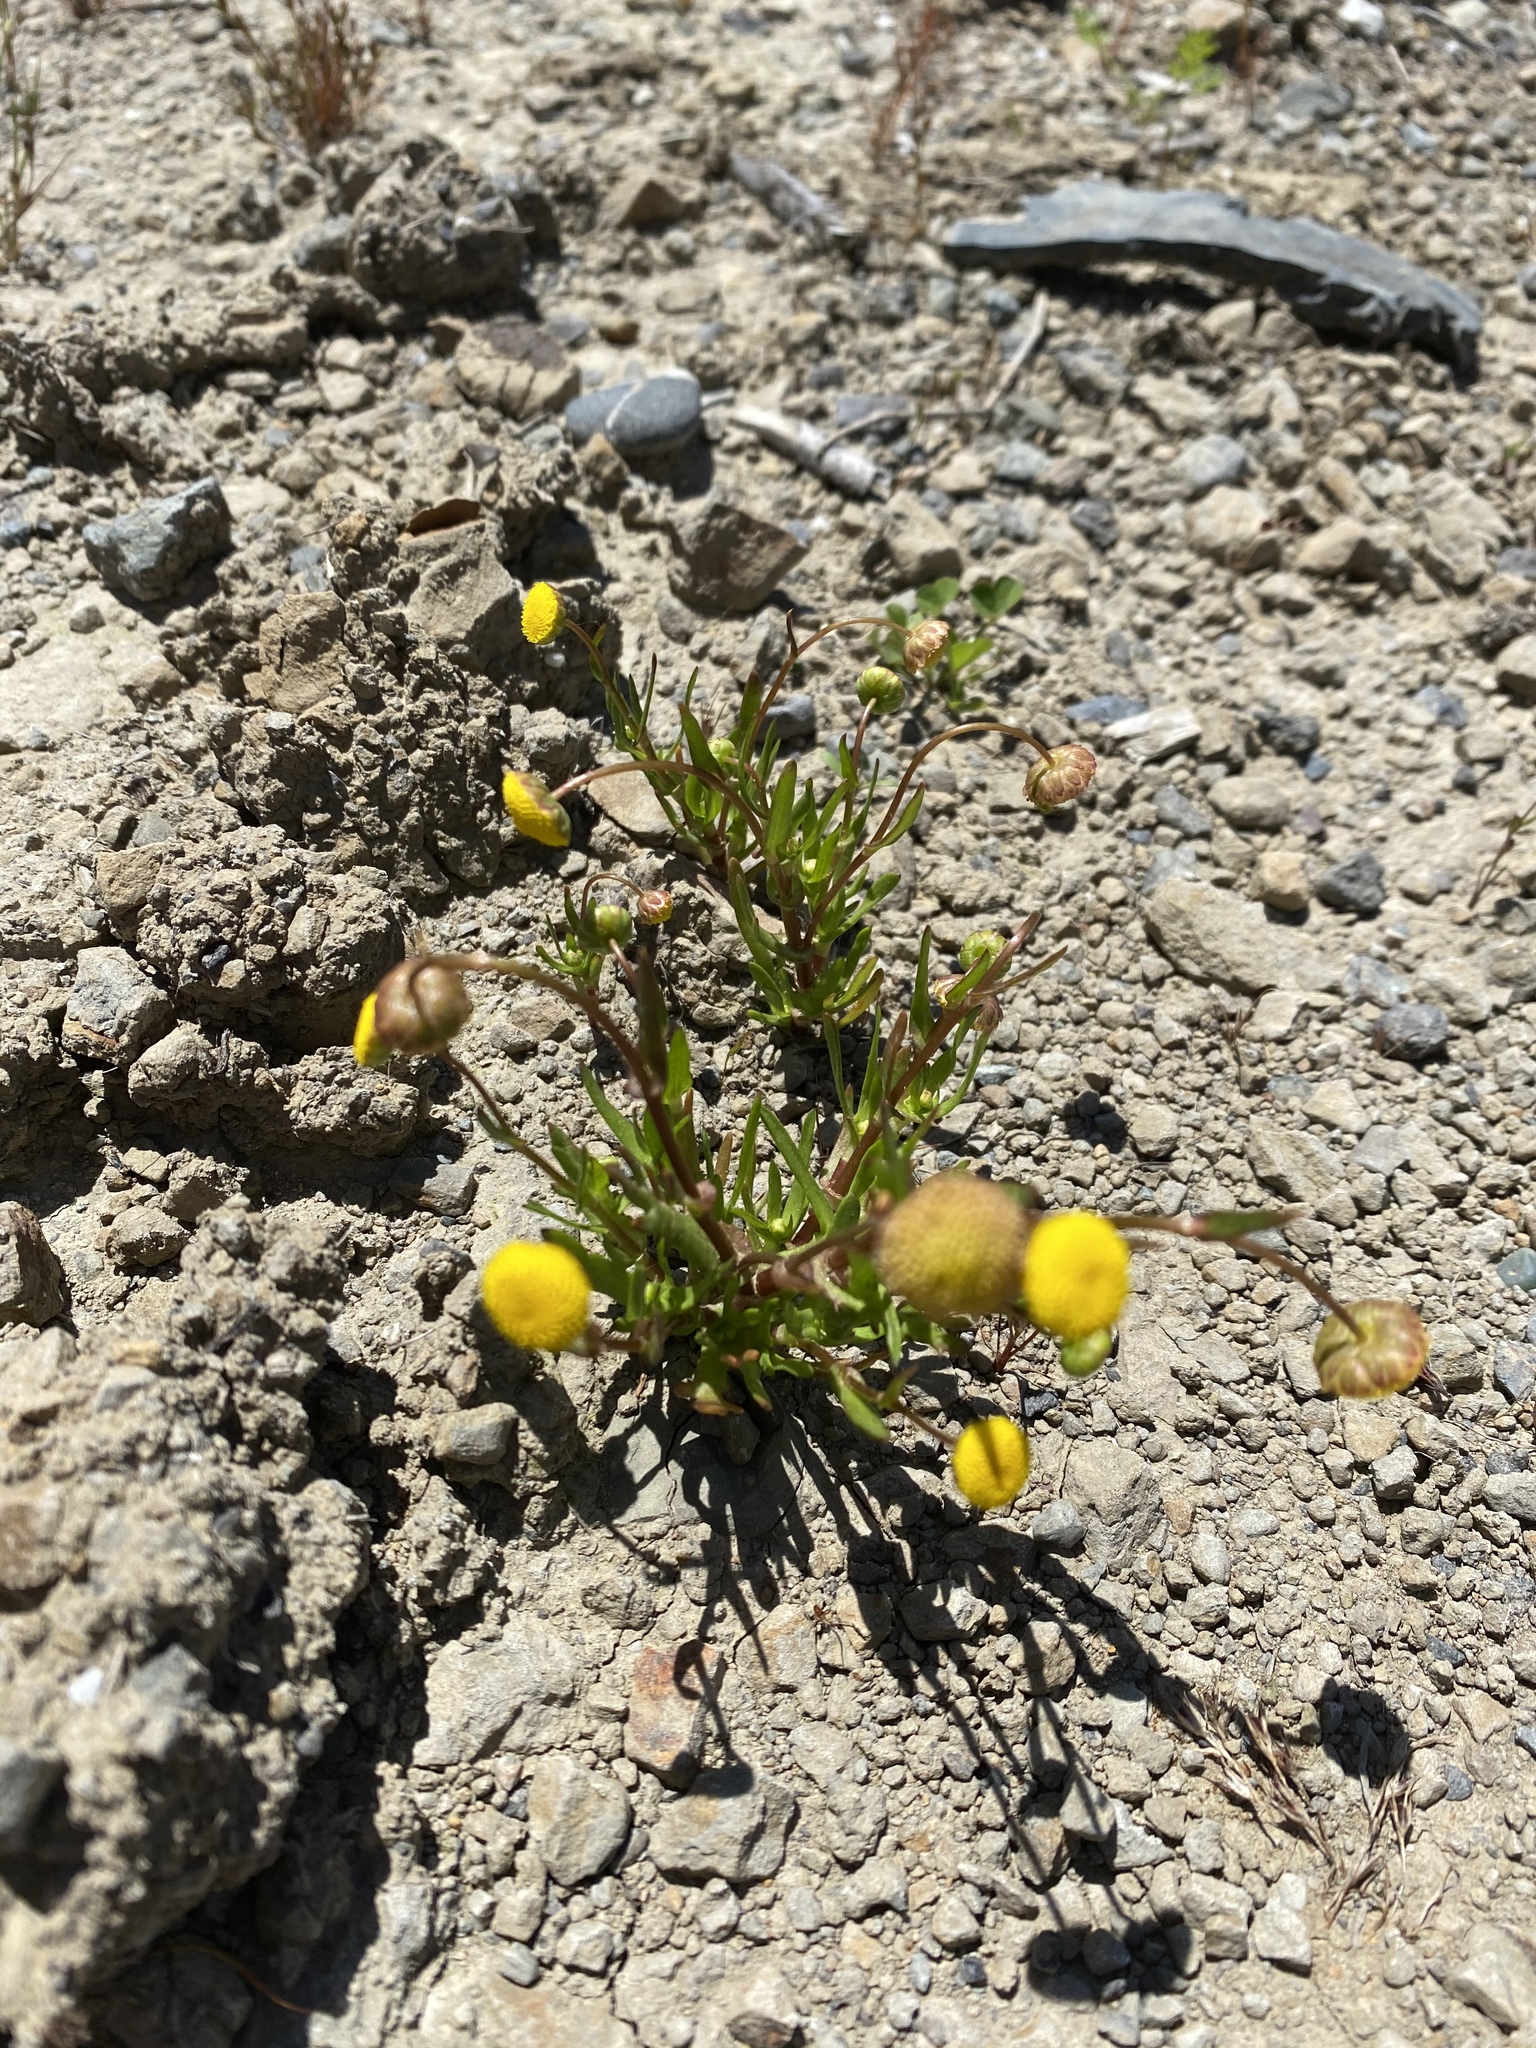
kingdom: Plantae
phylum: Tracheophyta
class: Magnoliopsida
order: Asterales
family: Asteraceae
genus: Cotula
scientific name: Cotula coronopifolia
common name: Buttonweed
